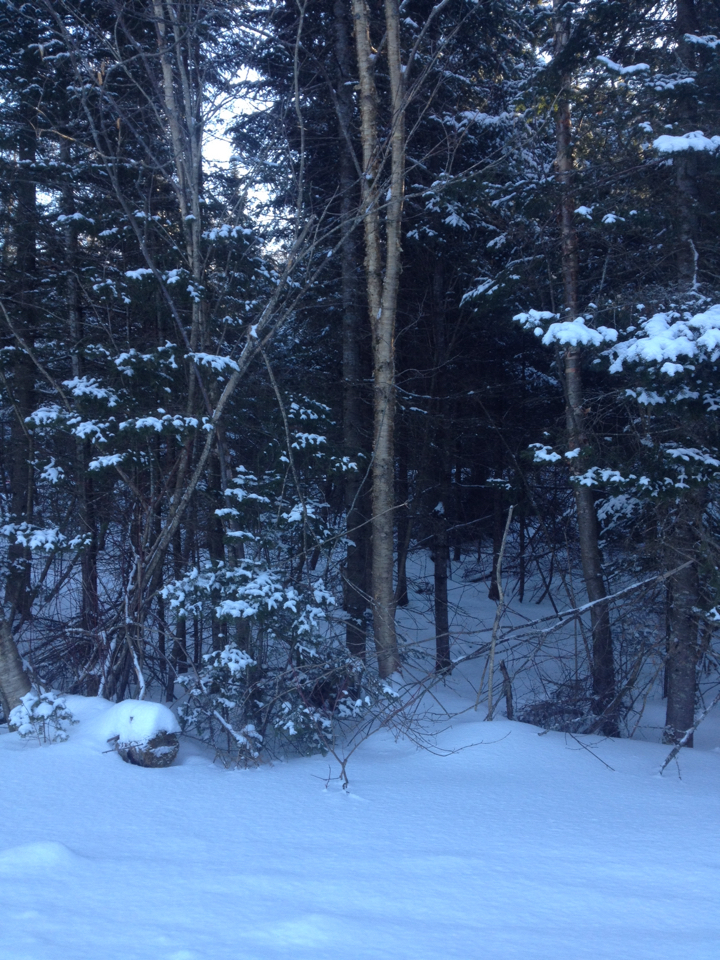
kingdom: Plantae
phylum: Tracheophyta
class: Magnoliopsida
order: Fagales
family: Betulaceae
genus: Betula
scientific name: Betula alleghaniensis
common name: Yellow birch
